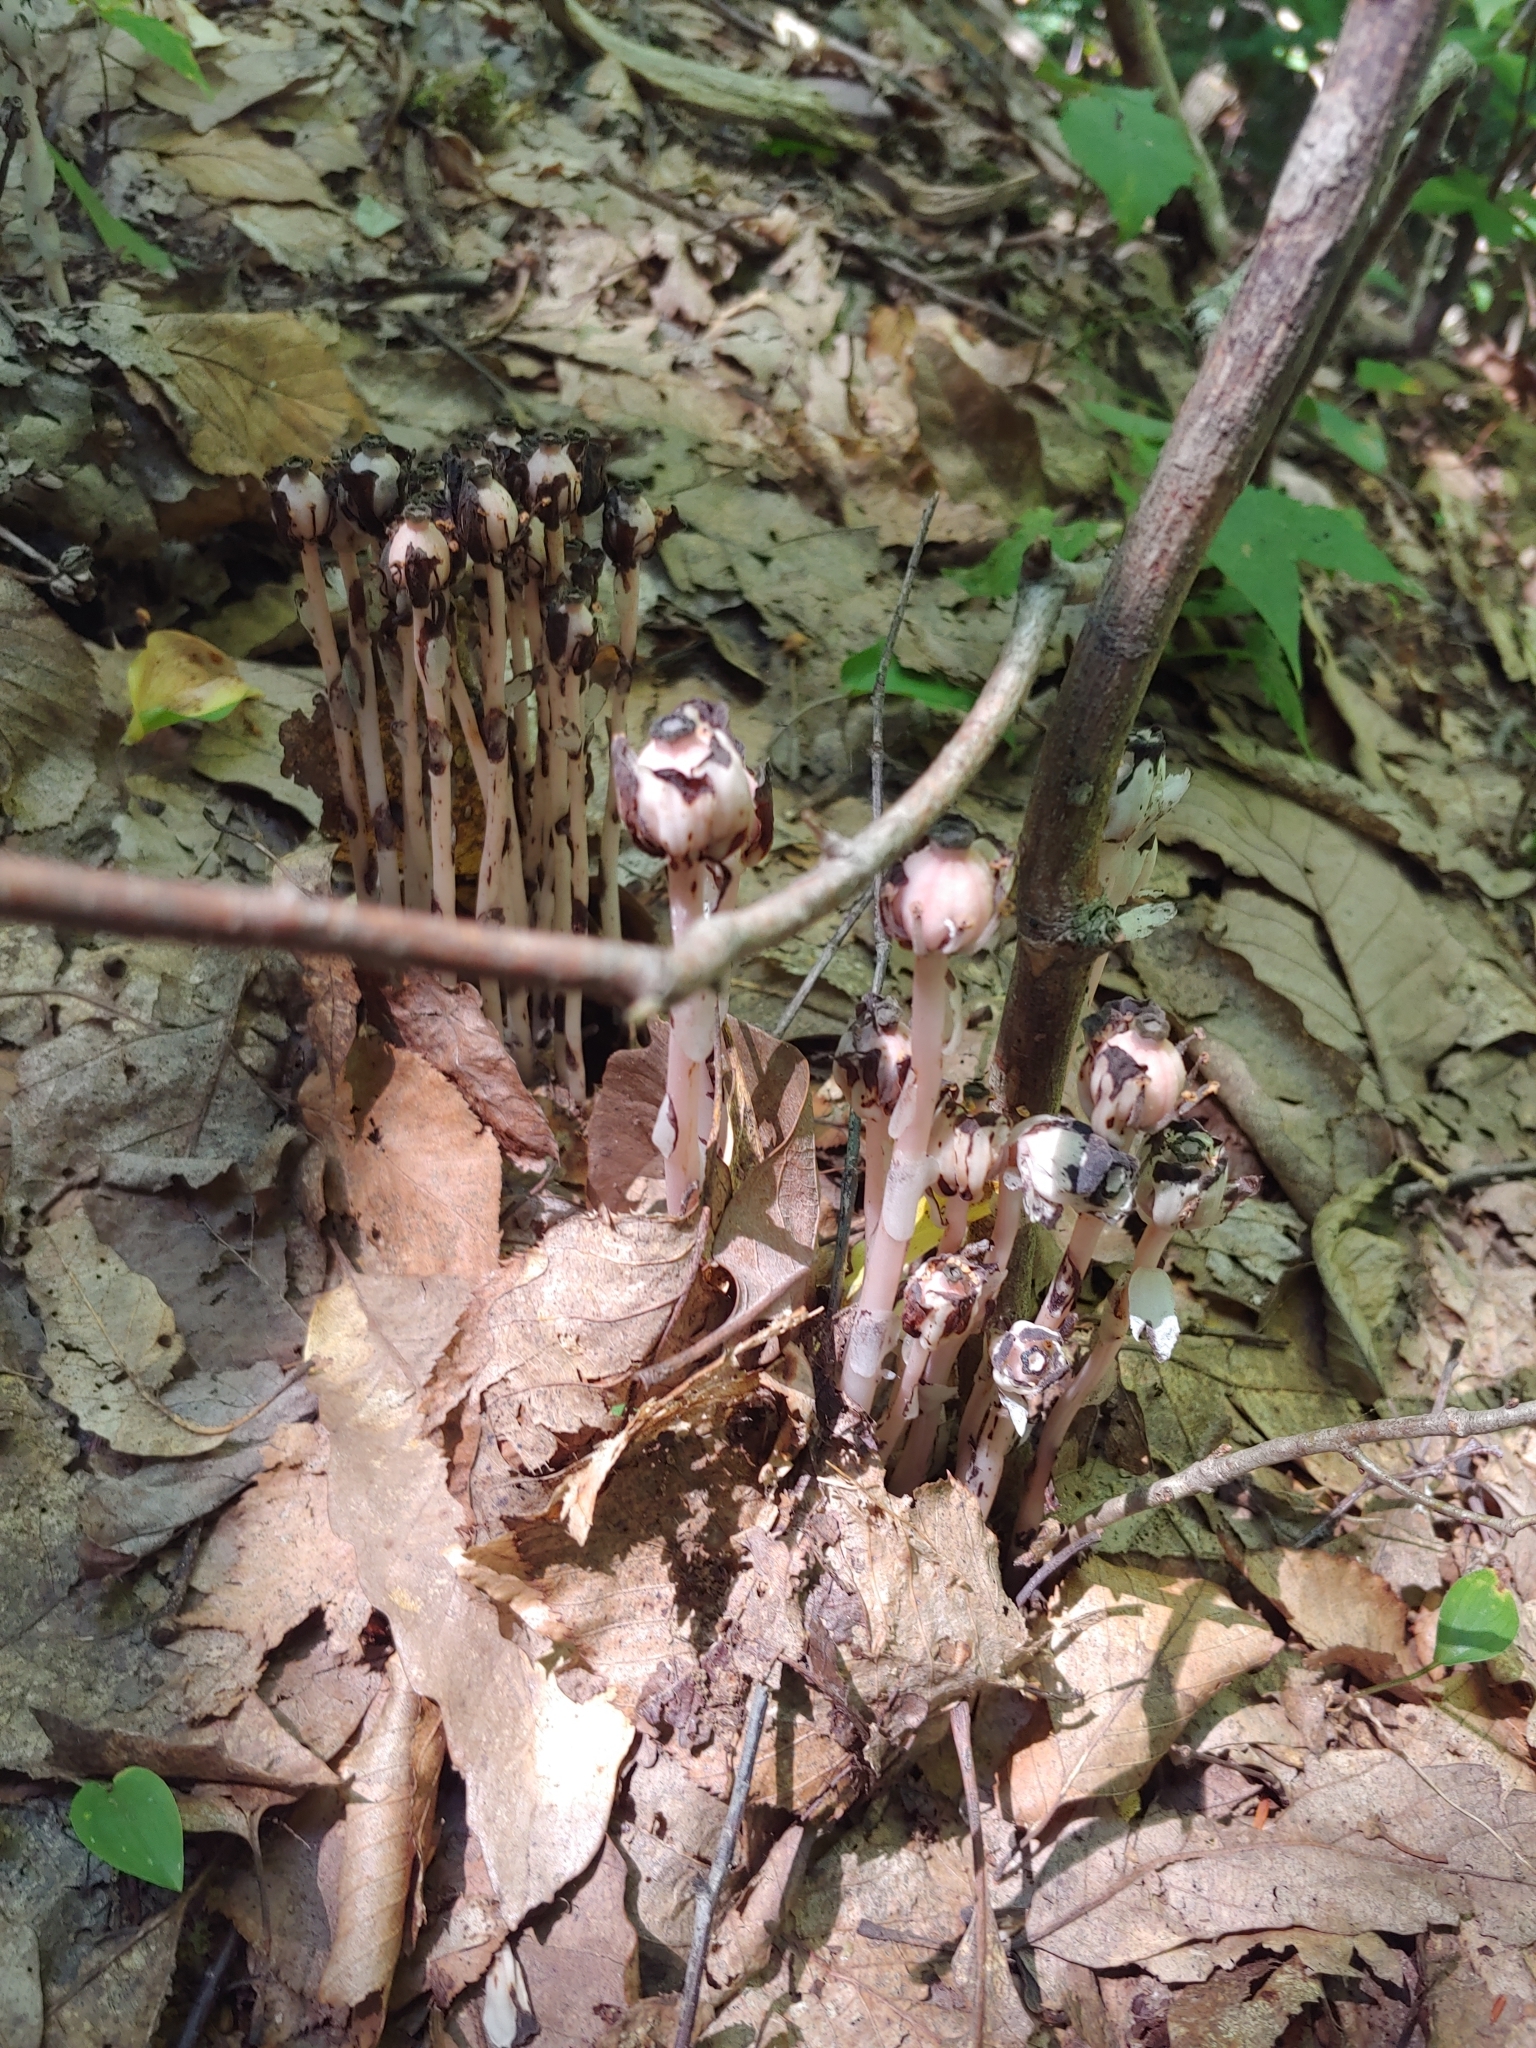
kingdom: Plantae
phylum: Tracheophyta
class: Magnoliopsida
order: Ericales
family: Ericaceae
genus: Monotropa
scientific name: Monotropa uniflora
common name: Convulsion root
